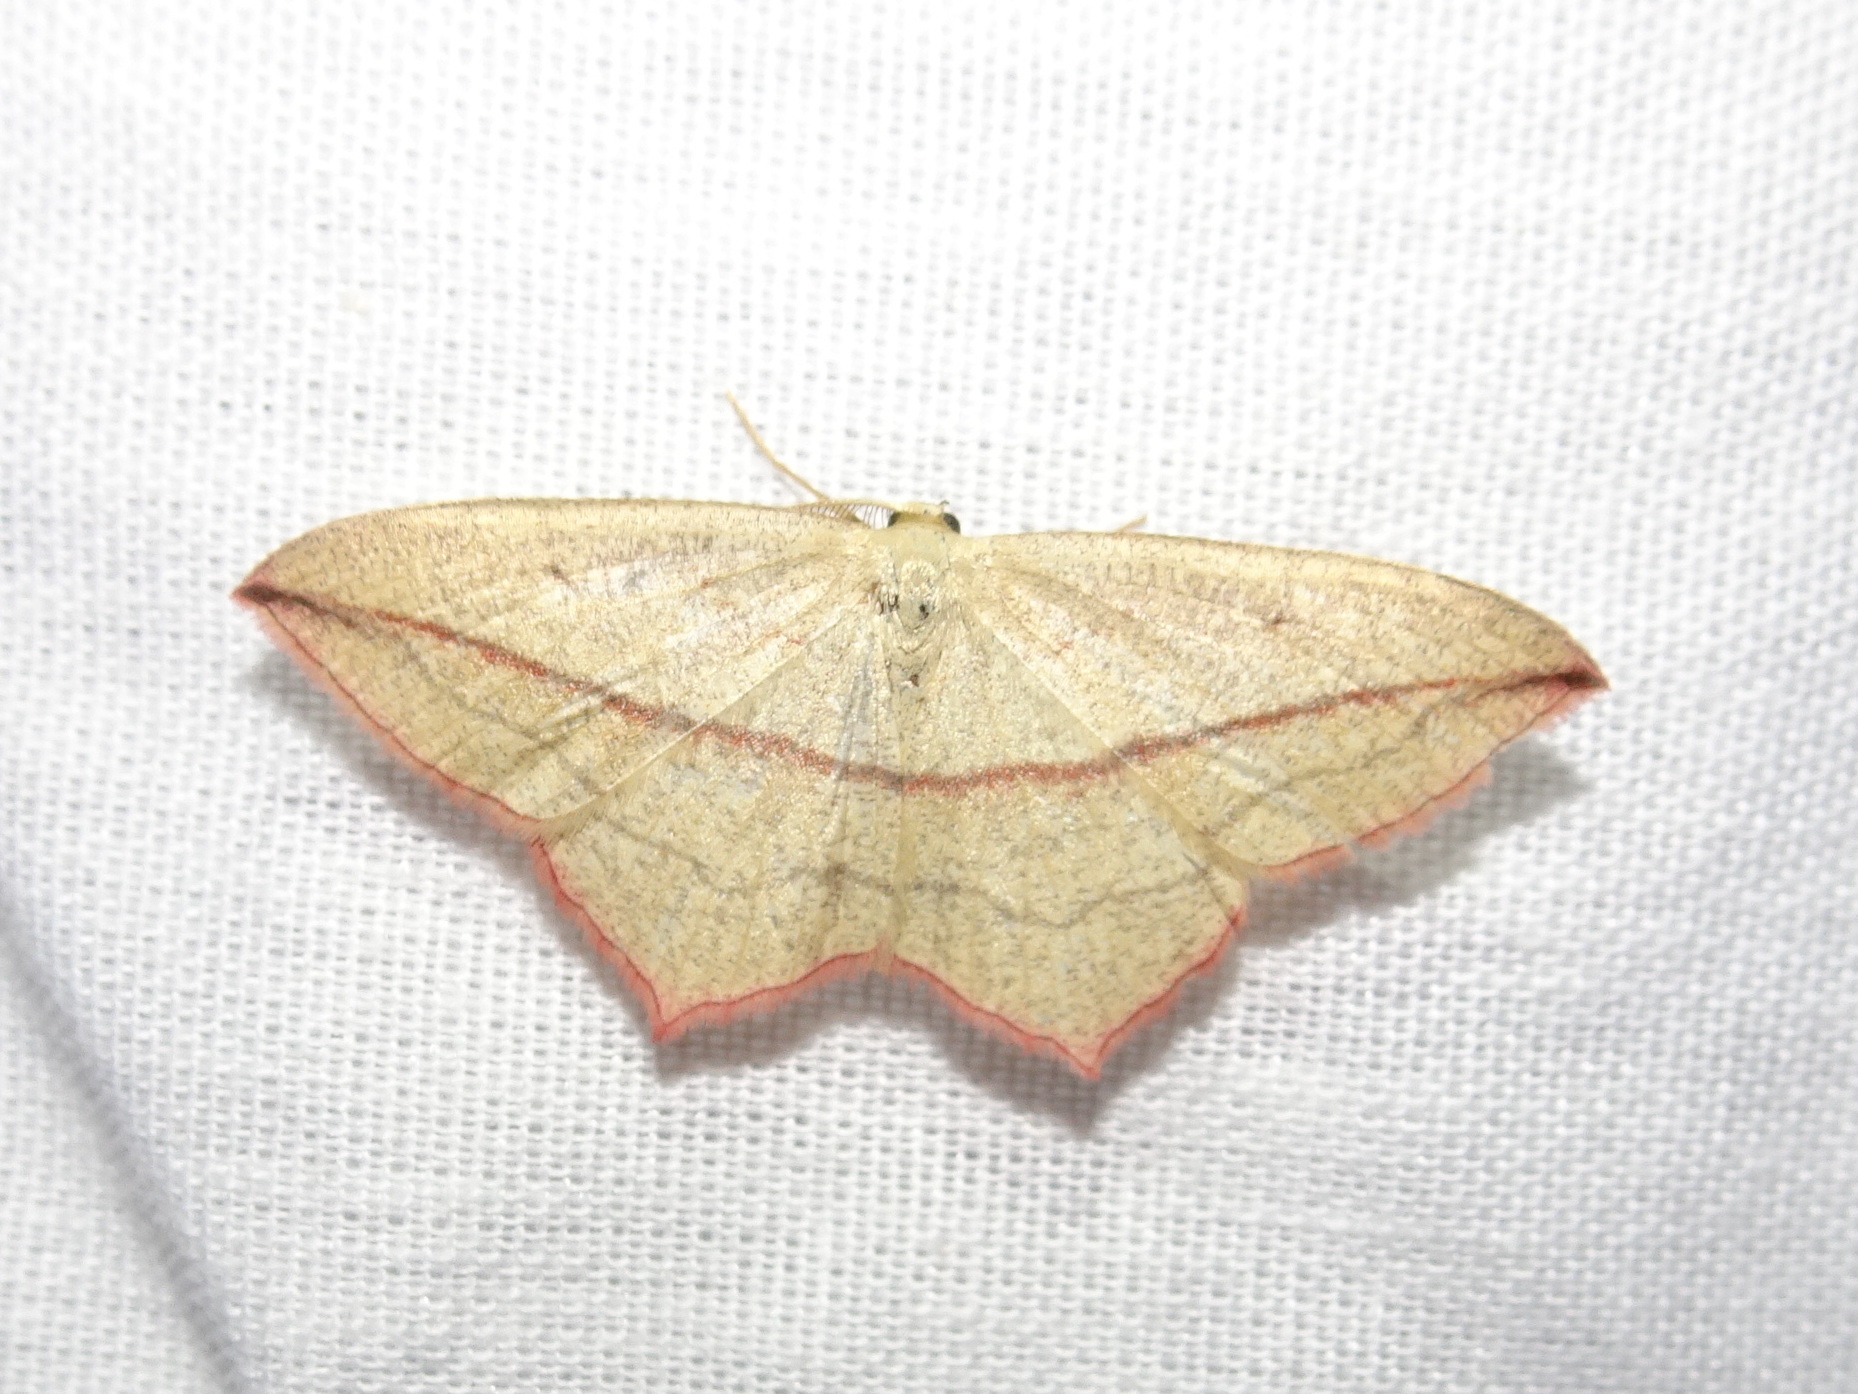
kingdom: Animalia
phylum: Arthropoda
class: Insecta
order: Lepidoptera
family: Geometridae
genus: Timandra
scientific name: Timandra comae
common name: Blood-vein
